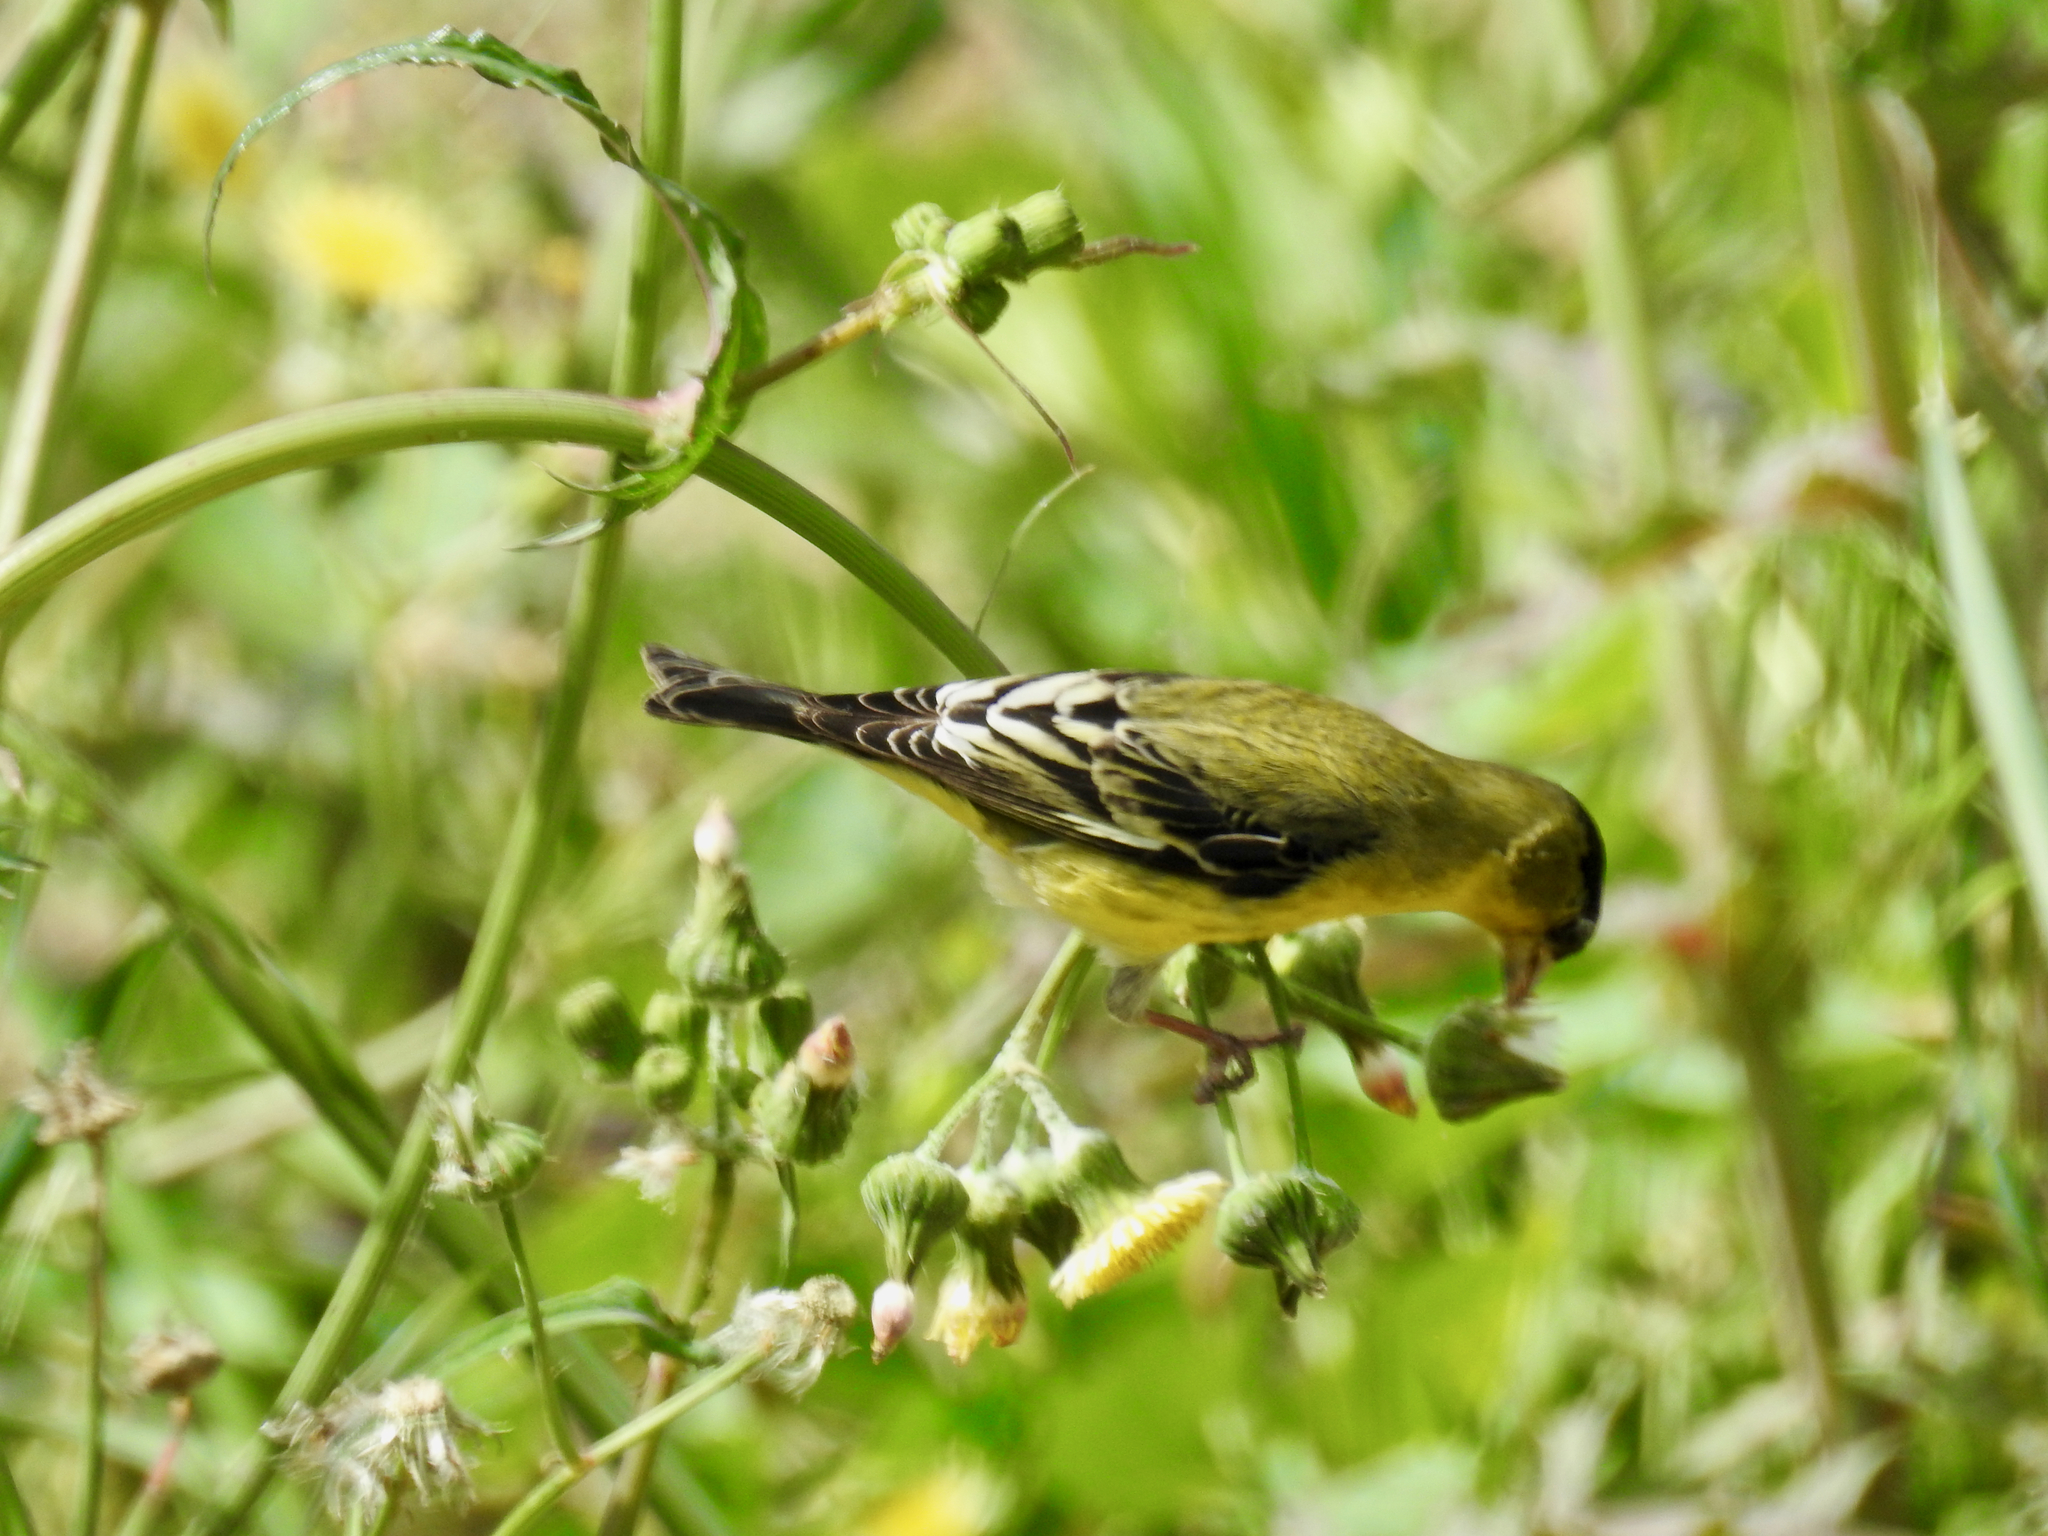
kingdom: Animalia
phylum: Chordata
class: Aves
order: Passeriformes
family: Fringillidae
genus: Spinus
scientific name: Spinus psaltria
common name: Lesser goldfinch
